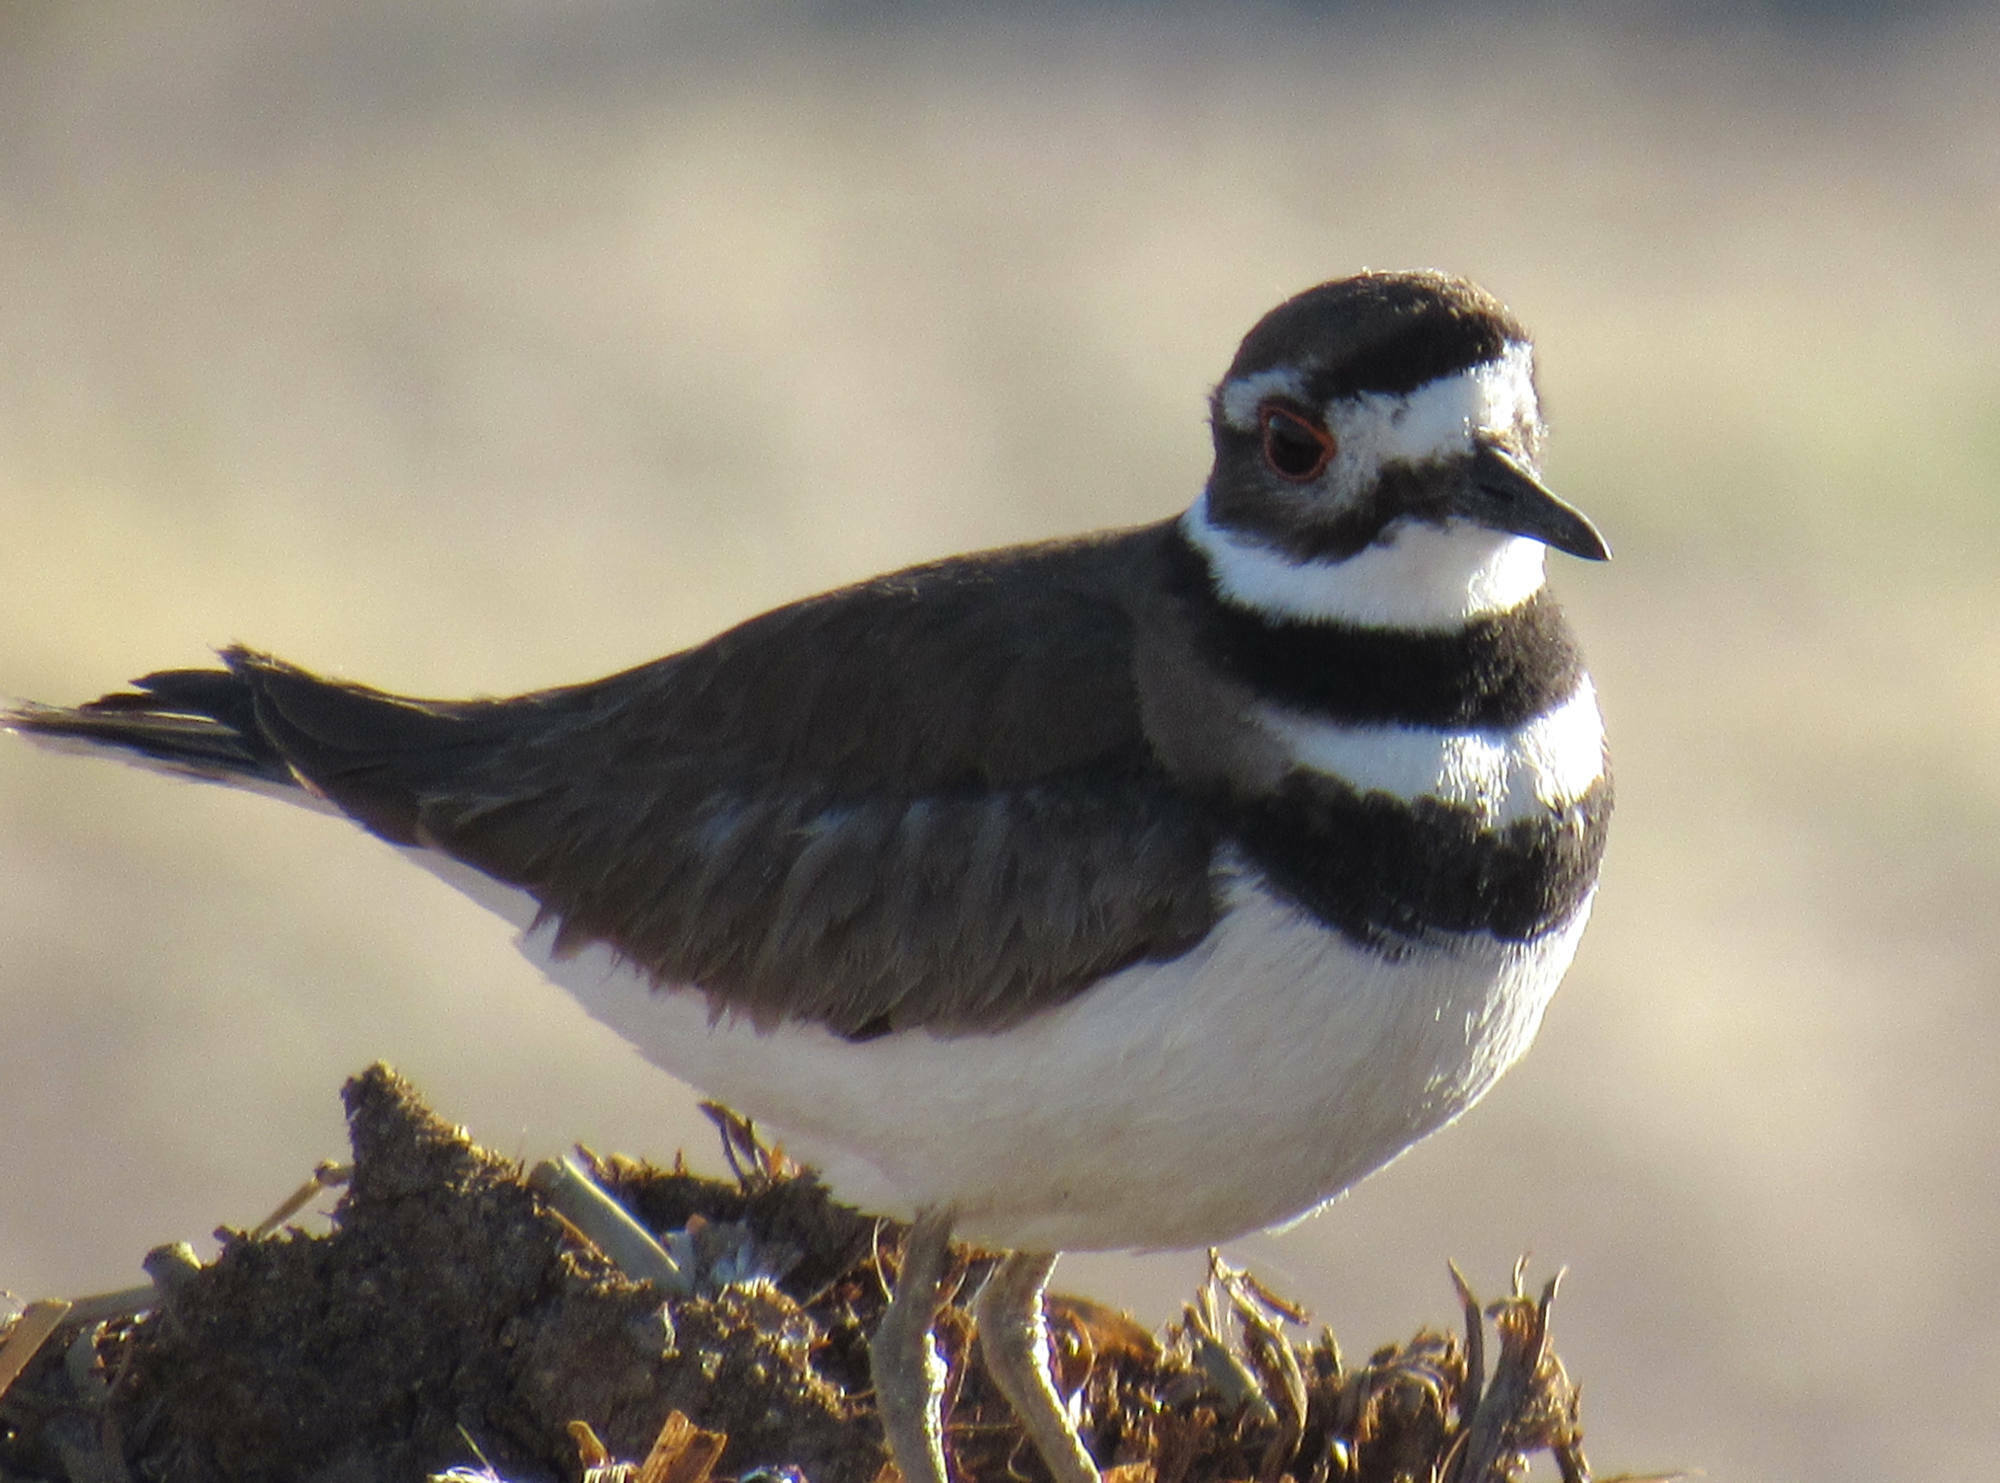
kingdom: Animalia
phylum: Chordata
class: Aves
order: Charadriiformes
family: Charadriidae
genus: Charadrius
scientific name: Charadrius vociferus
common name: Killdeer
